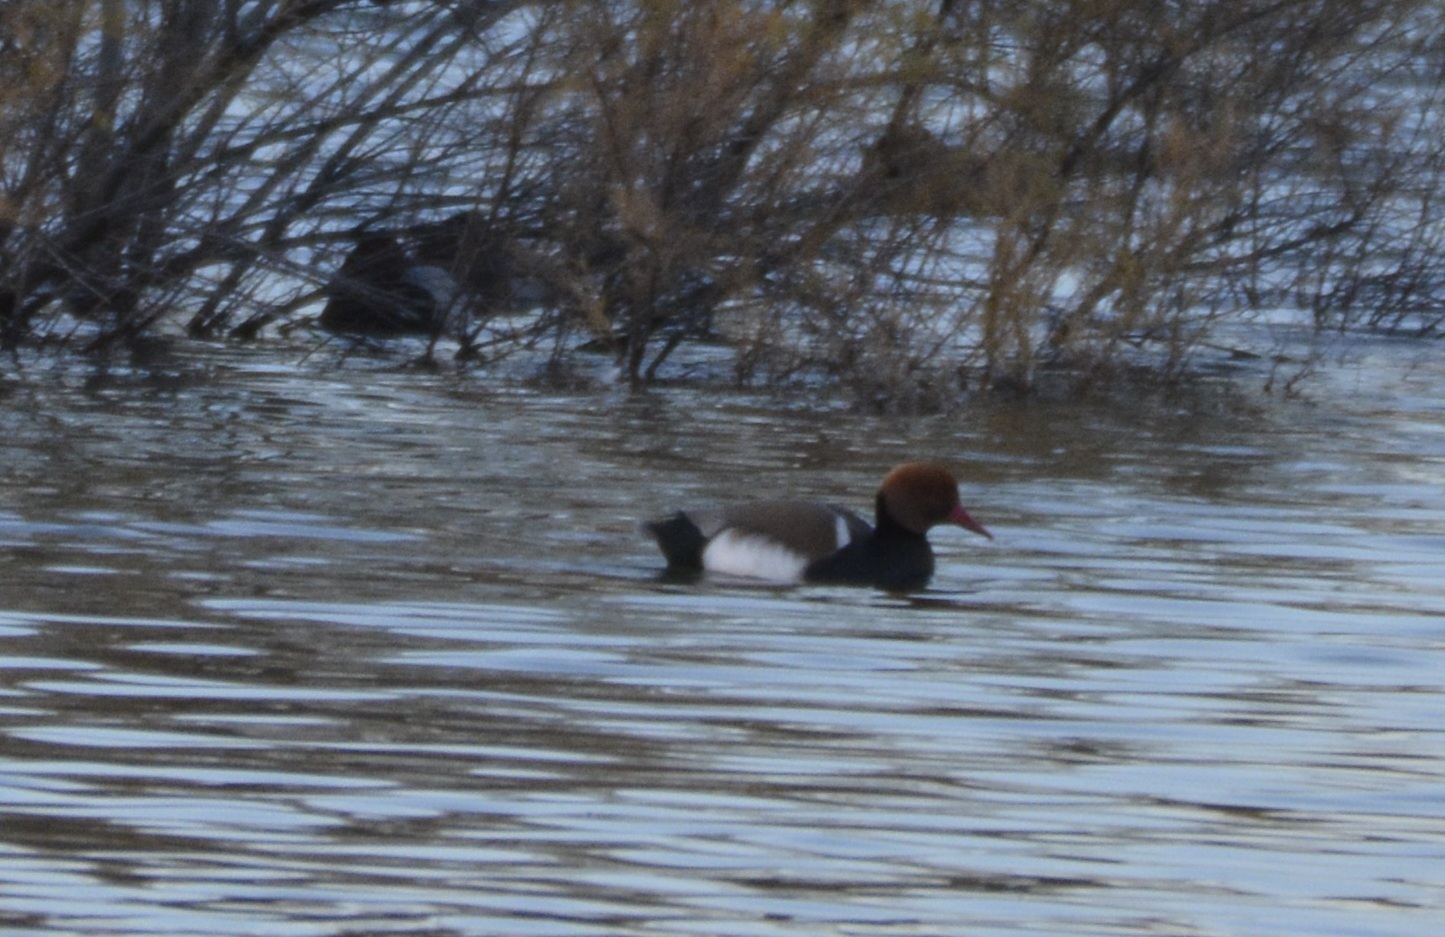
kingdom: Animalia
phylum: Chordata
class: Aves
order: Anseriformes
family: Anatidae
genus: Netta
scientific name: Netta rufina
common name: Red-crested pochard
